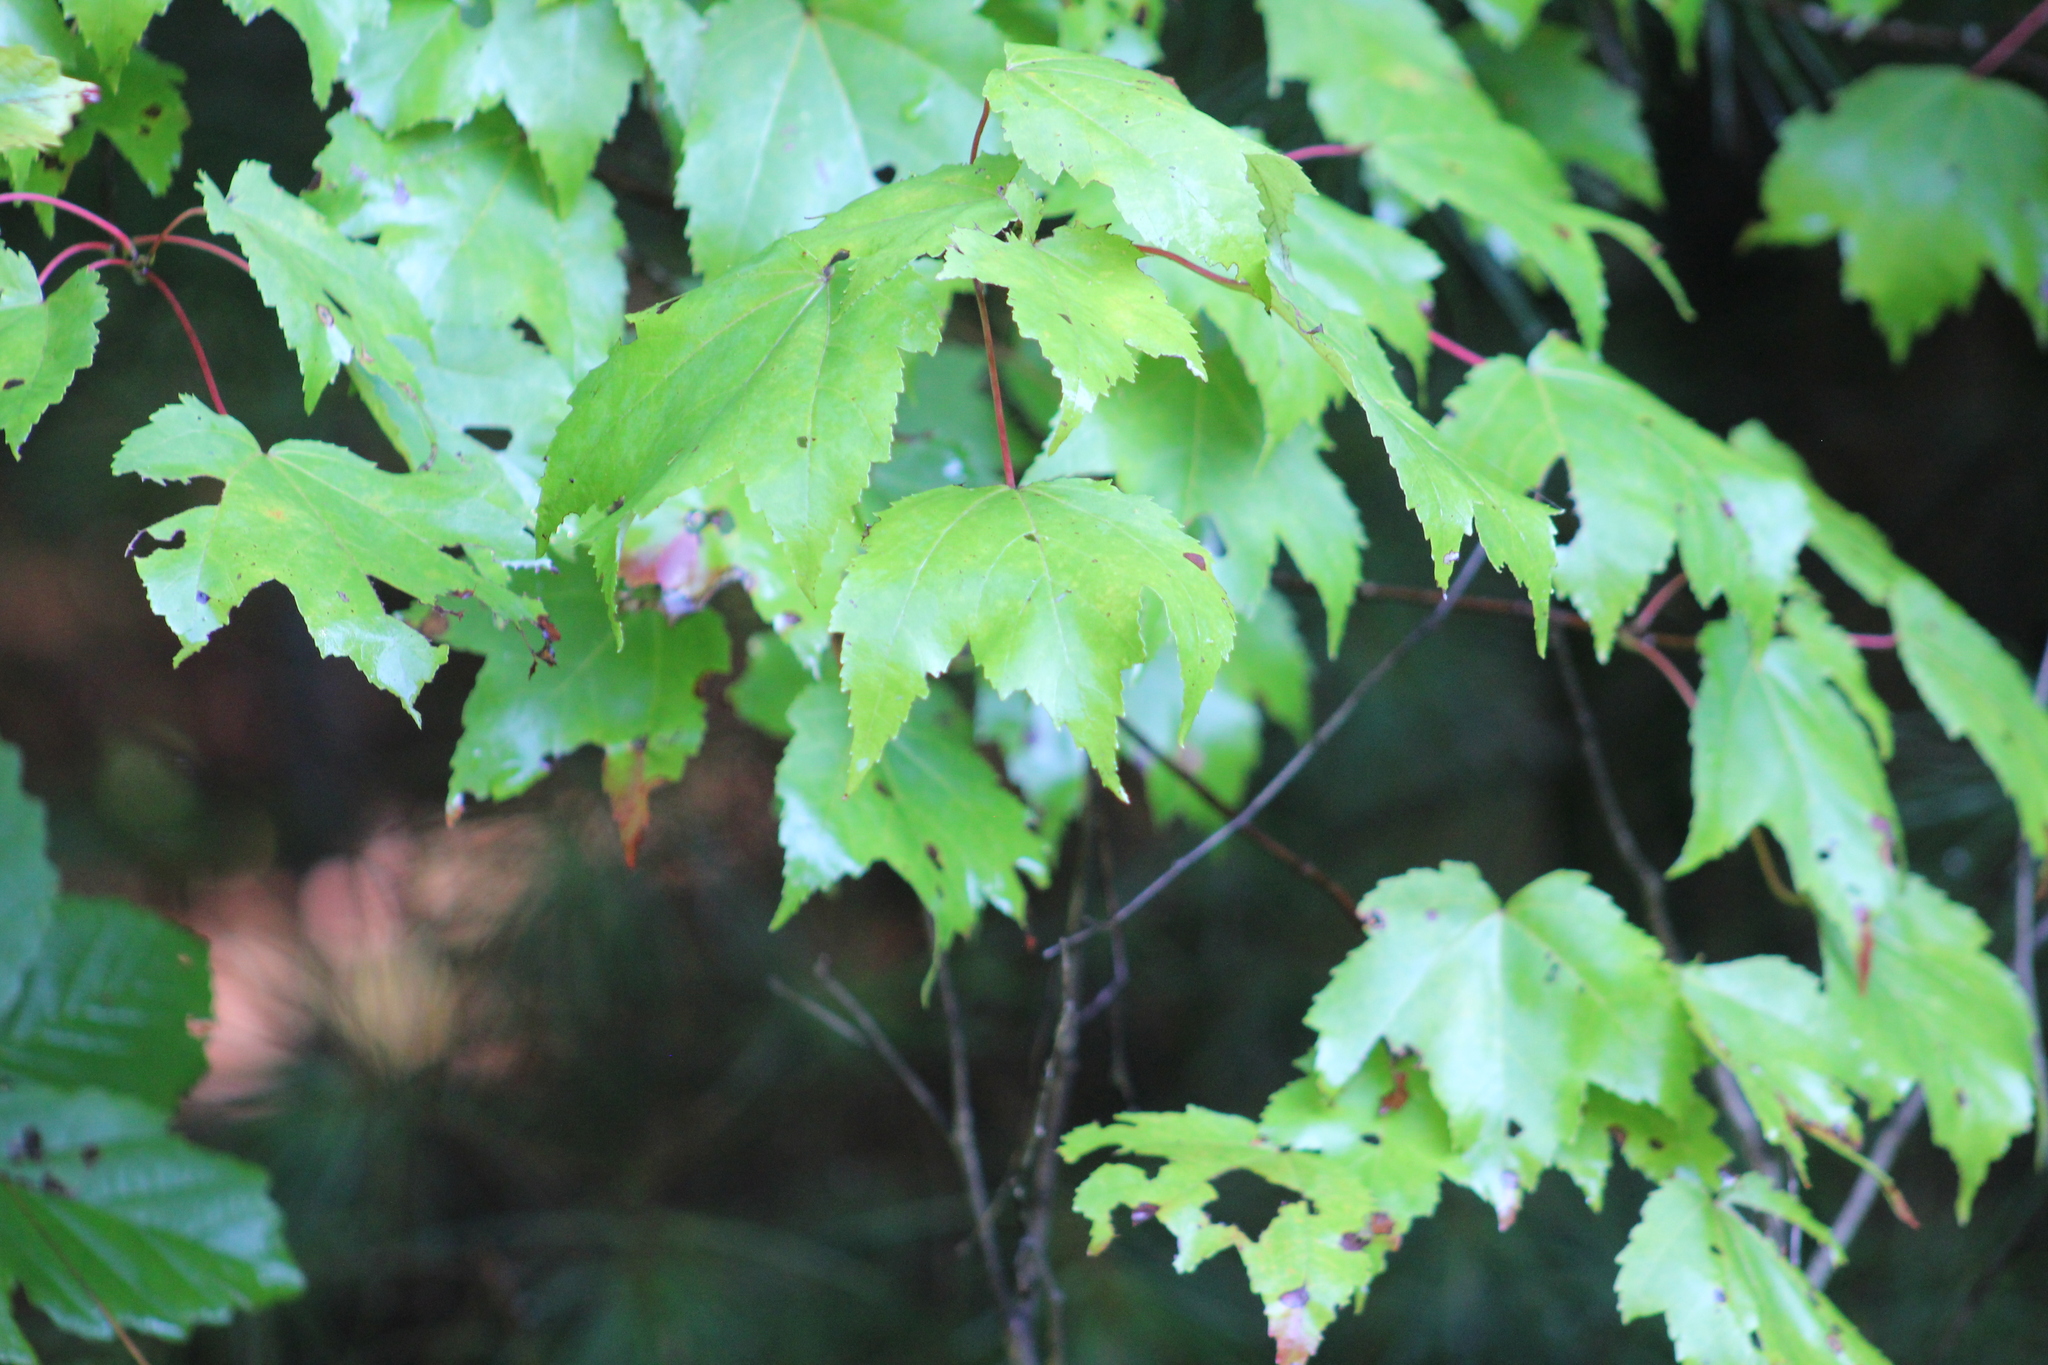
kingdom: Plantae
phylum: Tracheophyta
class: Magnoliopsida
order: Sapindales
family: Sapindaceae
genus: Acer
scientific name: Acer rubrum
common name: Red maple
